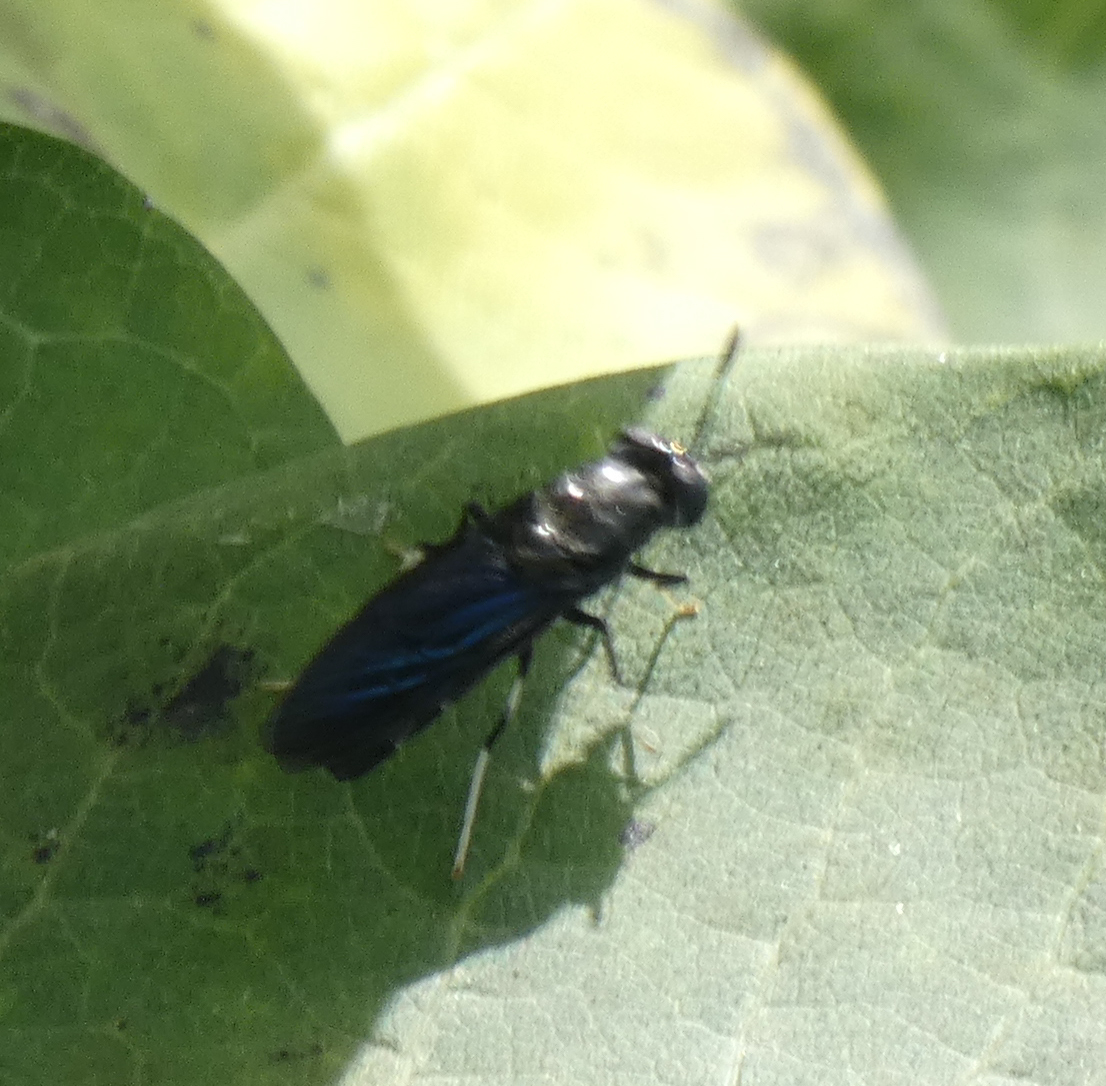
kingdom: Animalia
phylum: Arthropoda
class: Insecta
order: Diptera
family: Stratiomyidae
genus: Hermetia
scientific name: Hermetia illucens
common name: Black soldier fly
